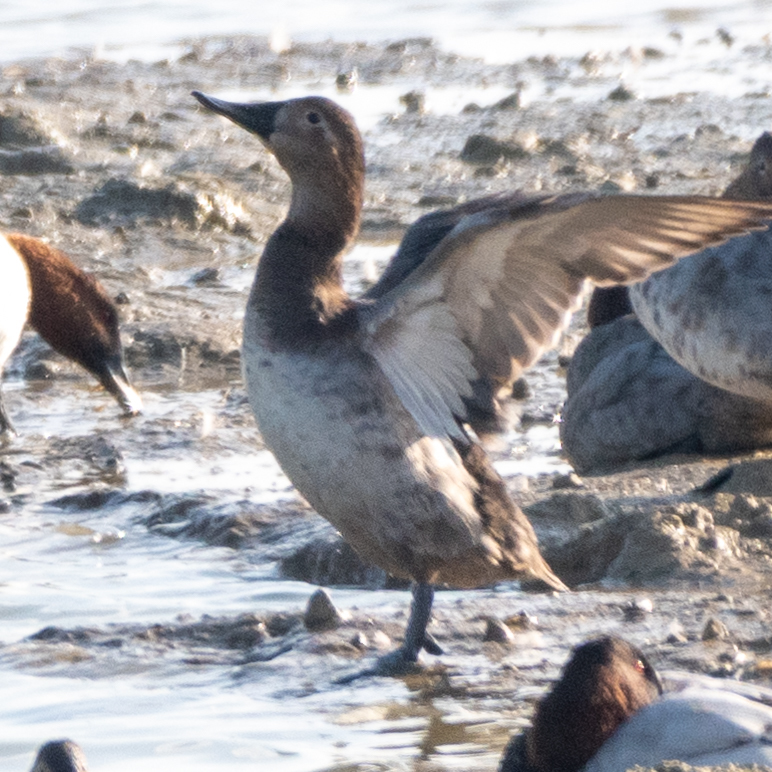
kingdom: Animalia
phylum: Chordata
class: Aves
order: Anseriformes
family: Anatidae
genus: Aythya
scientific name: Aythya valisineria
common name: Canvasback
